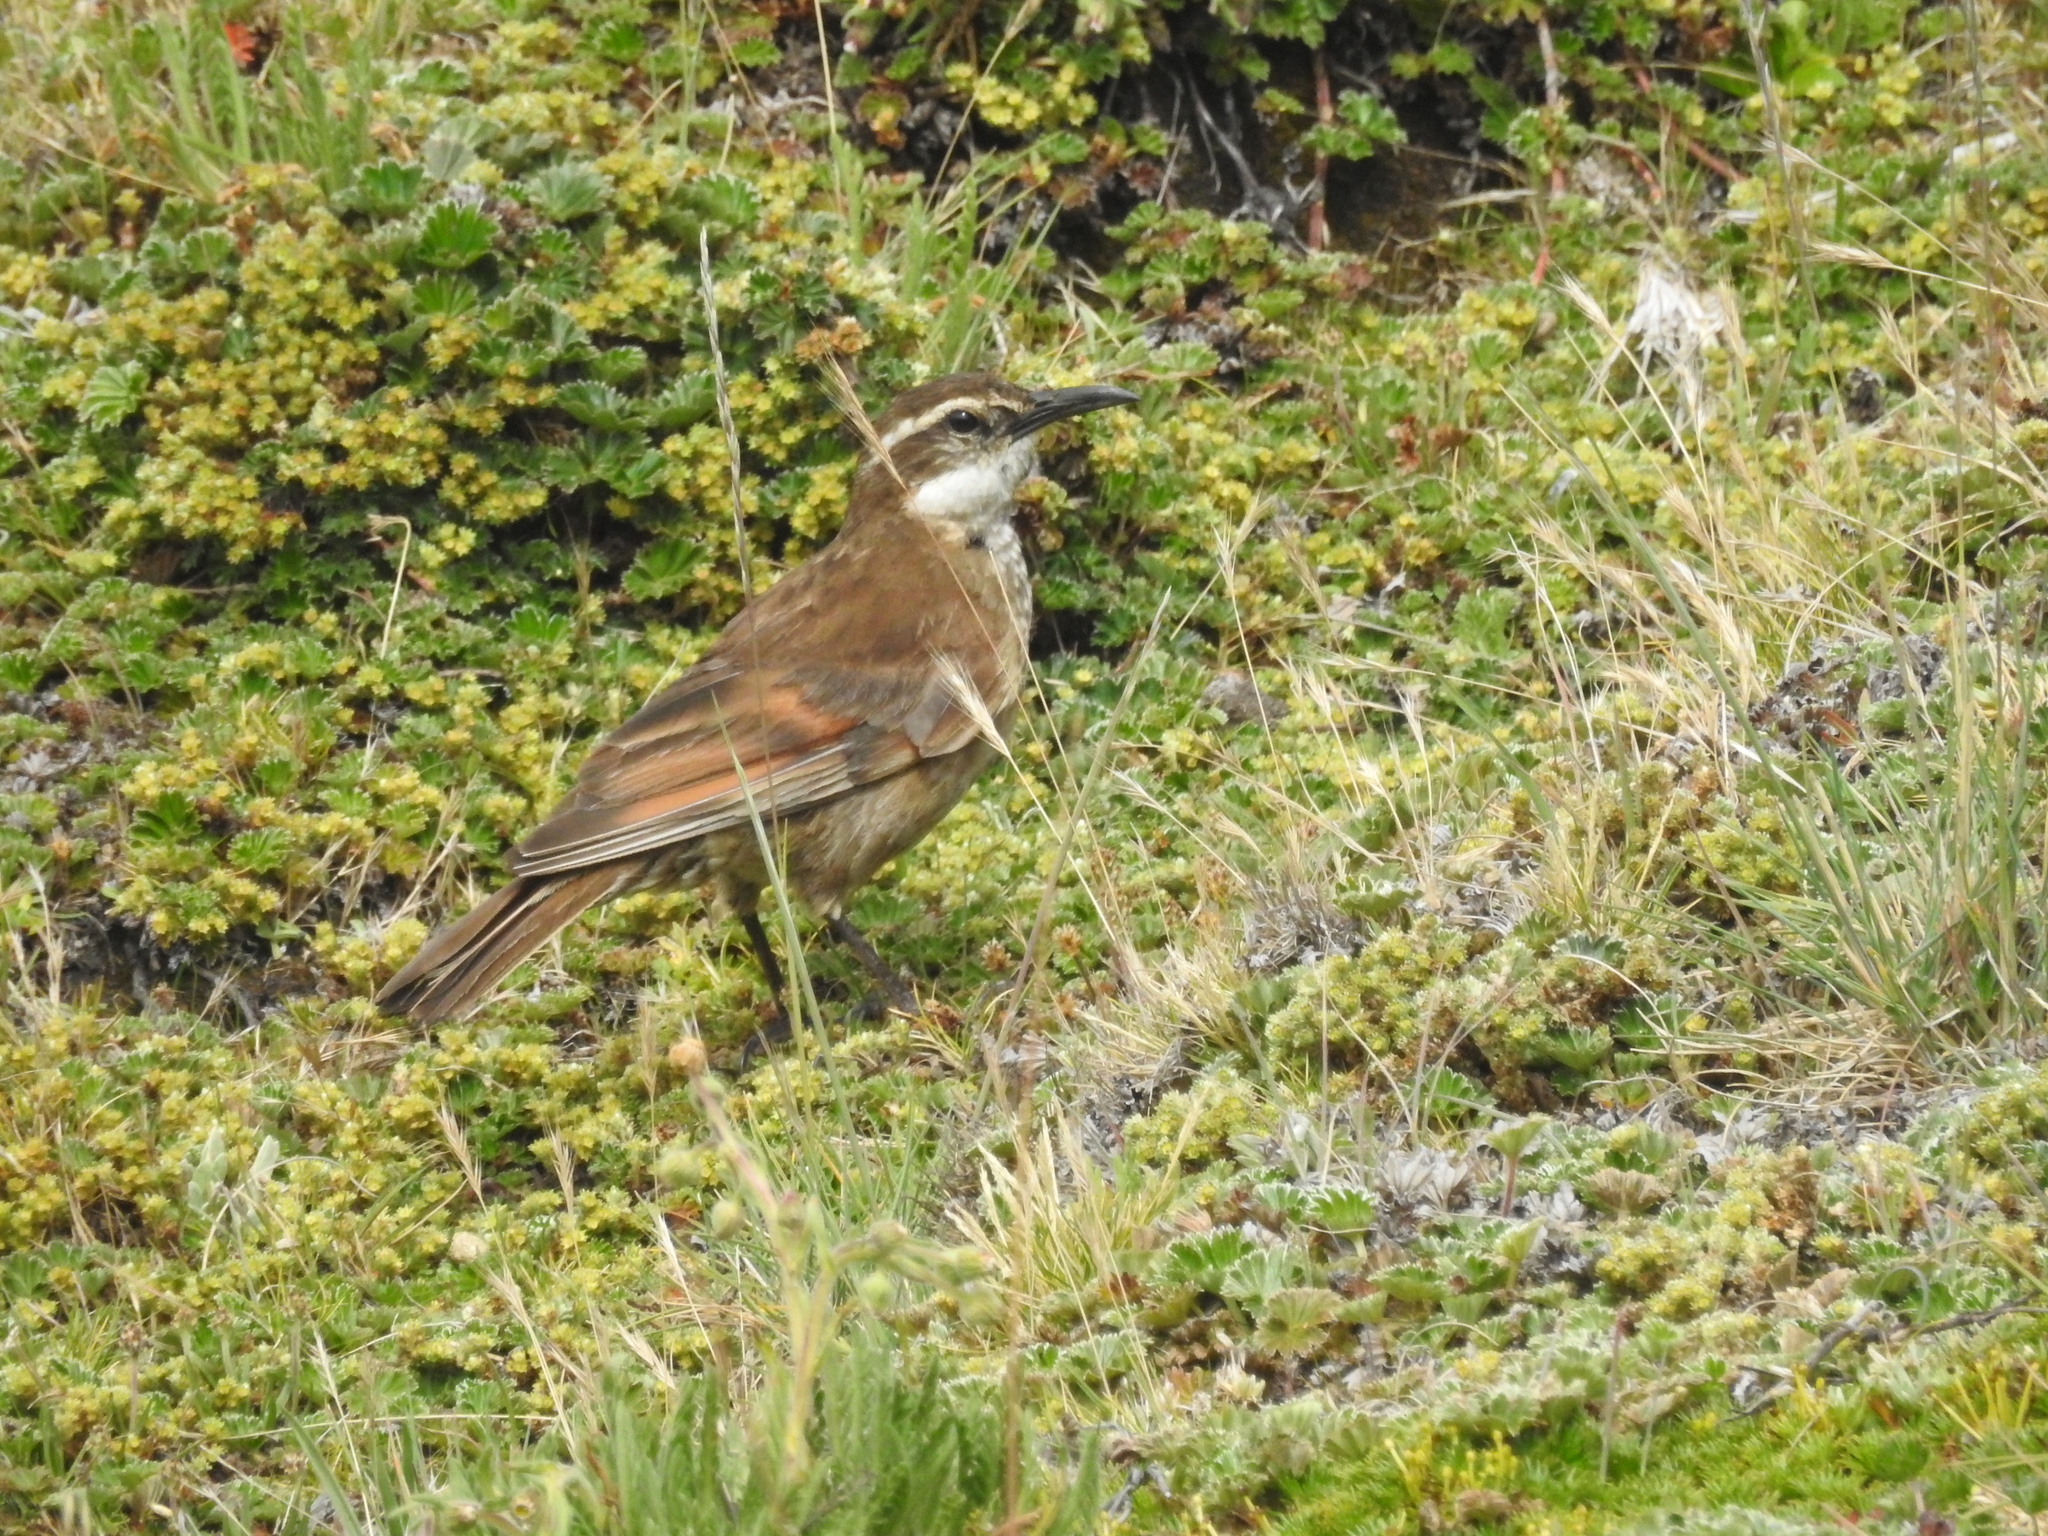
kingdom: Animalia
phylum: Chordata
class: Aves
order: Passeriformes
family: Furnariidae
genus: Cinclodes
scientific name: Cinclodes excelsior
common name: Stout-billed cinclodes
